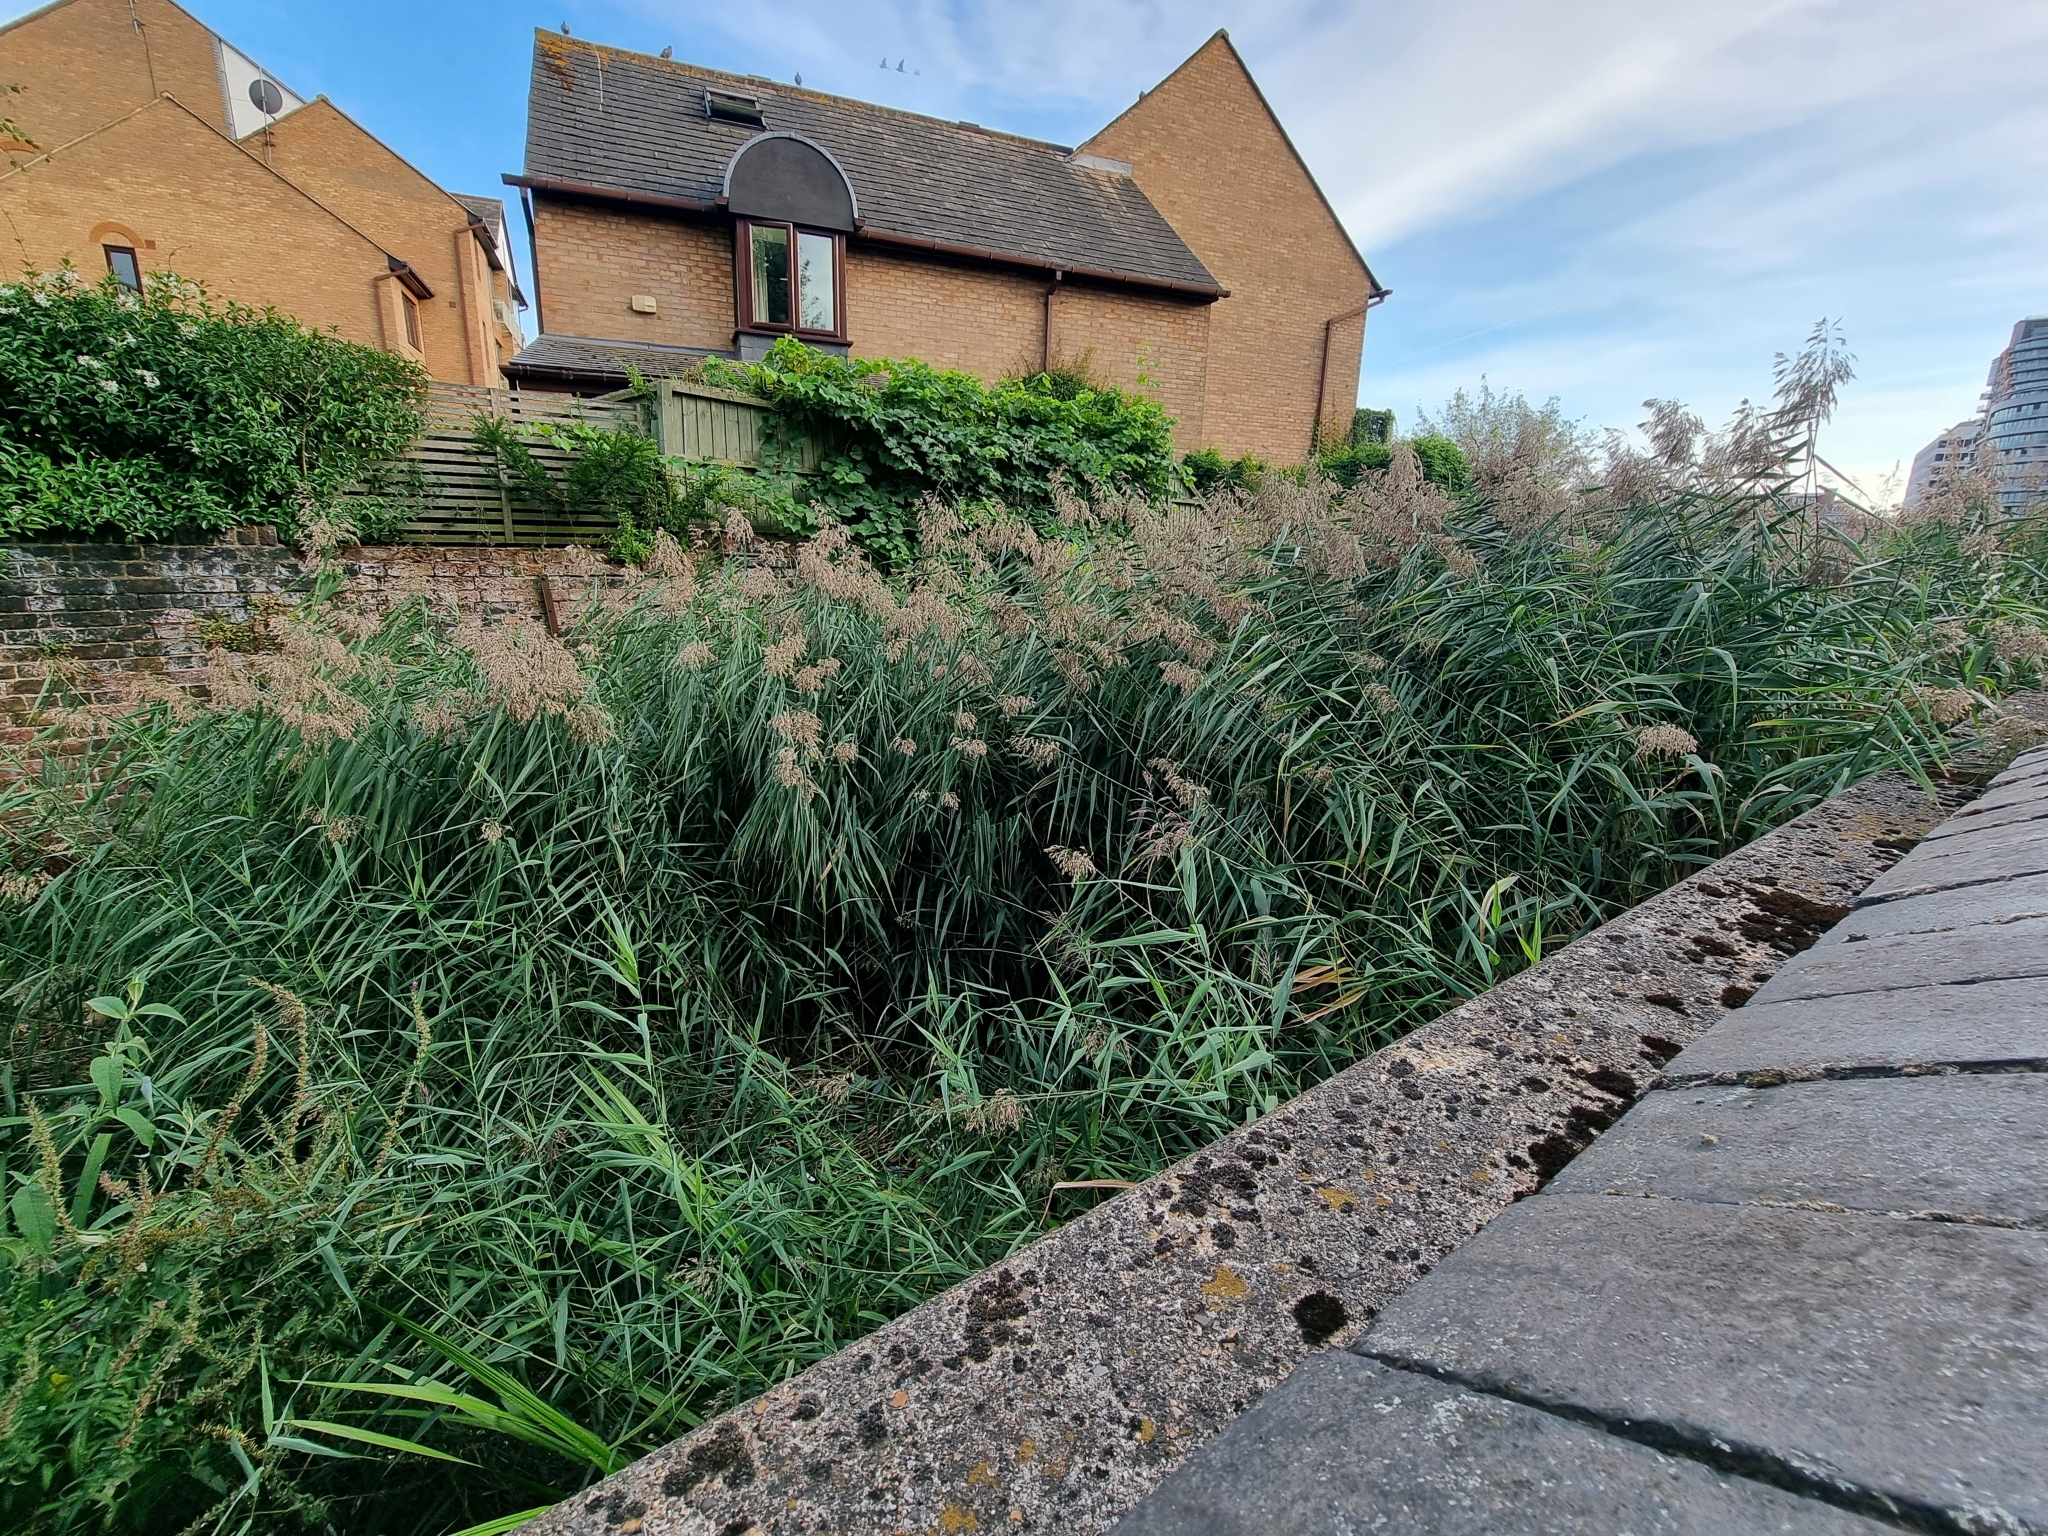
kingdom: Plantae
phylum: Tracheophyta
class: Liliopsida
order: Poales
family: Poaceae
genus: Phragmites
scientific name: Phragmites australis
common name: Common reed
